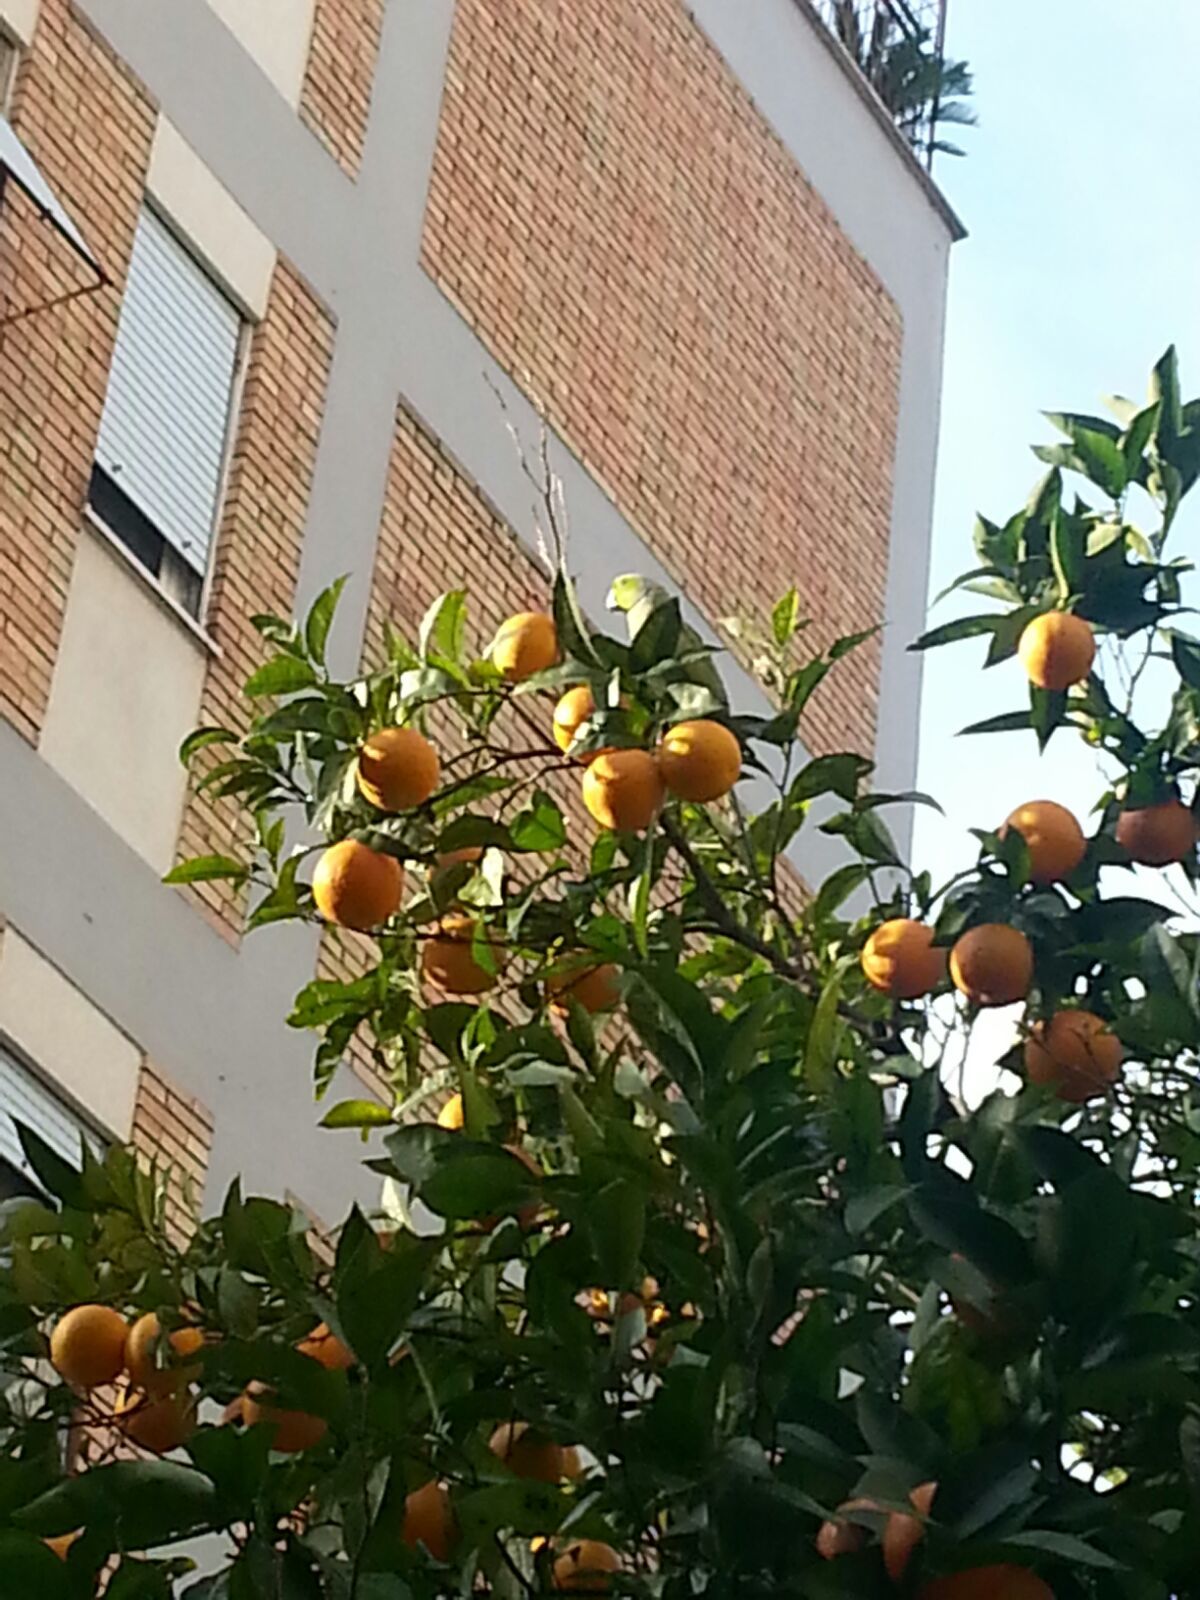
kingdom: Animalia
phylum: Chordata
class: Aves
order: Psittaciformes
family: Psittacidae
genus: Psittacula
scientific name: Psittacula krameri
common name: Rose-ringed parakeet
